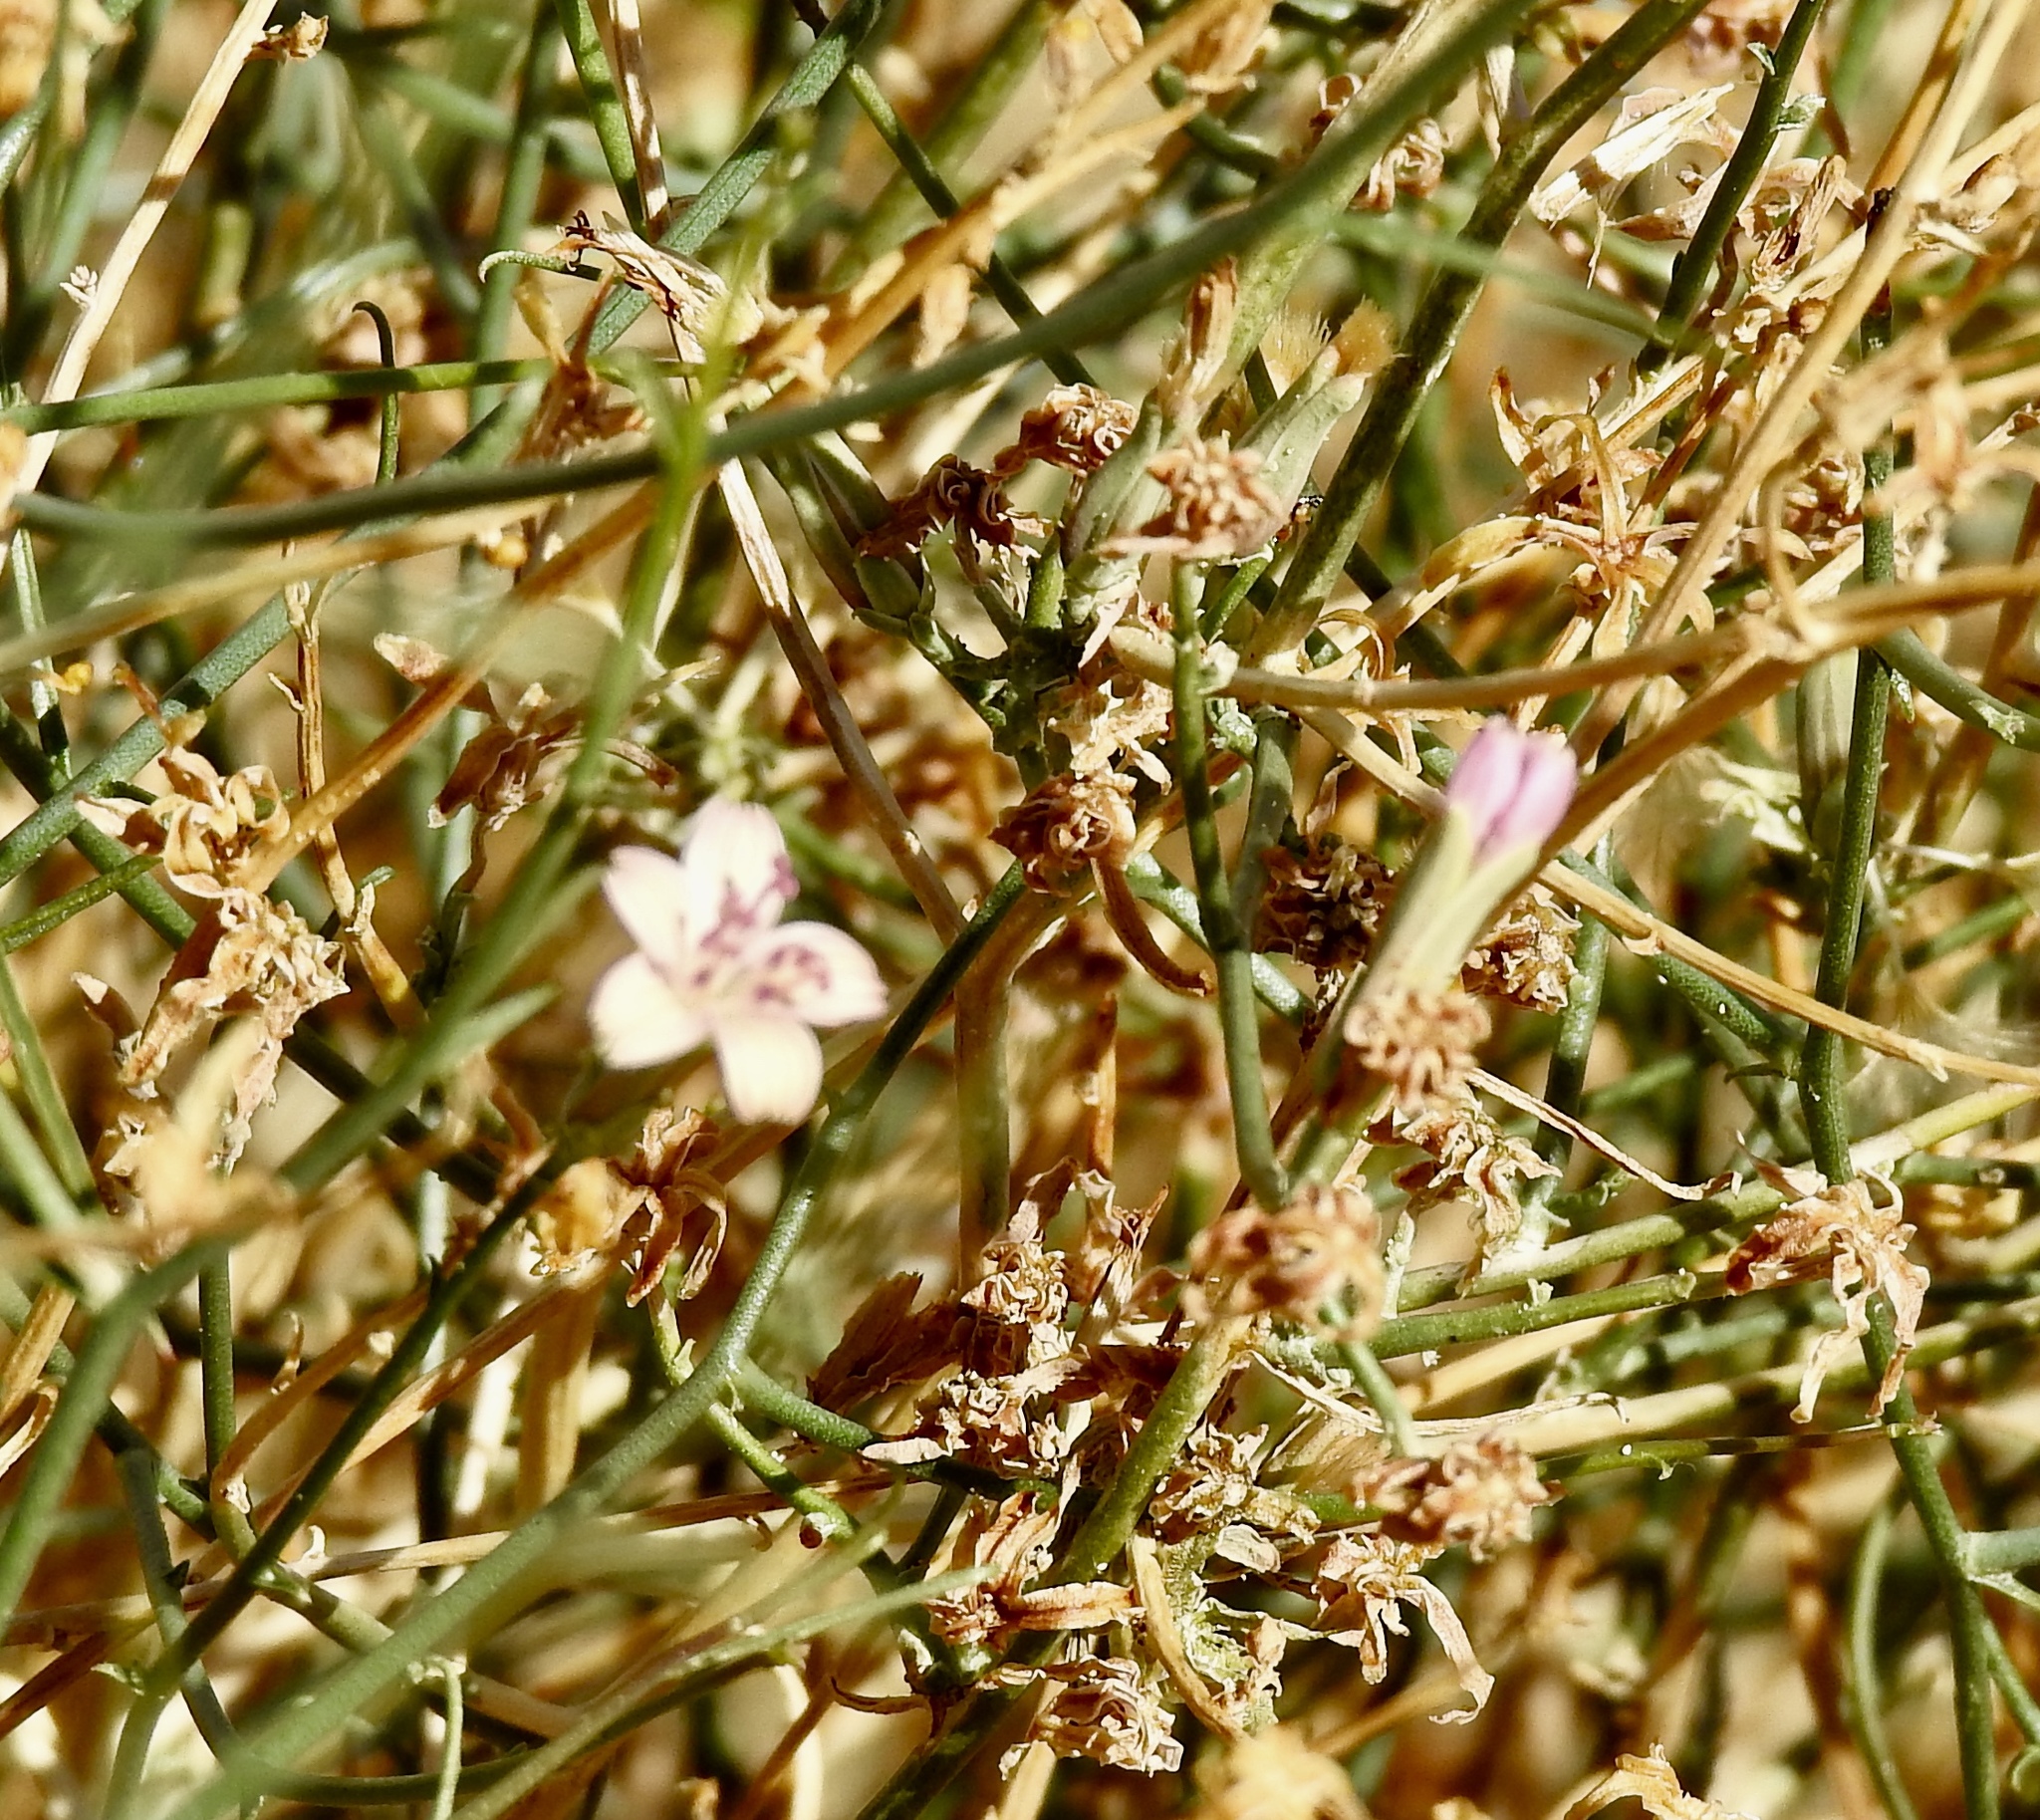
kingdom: Plantae
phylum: Tracheophyta
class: Magnoliopsida
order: Asterales
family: Asteraceae
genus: Stephanomeria
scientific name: Stephanomeria pauciflora
